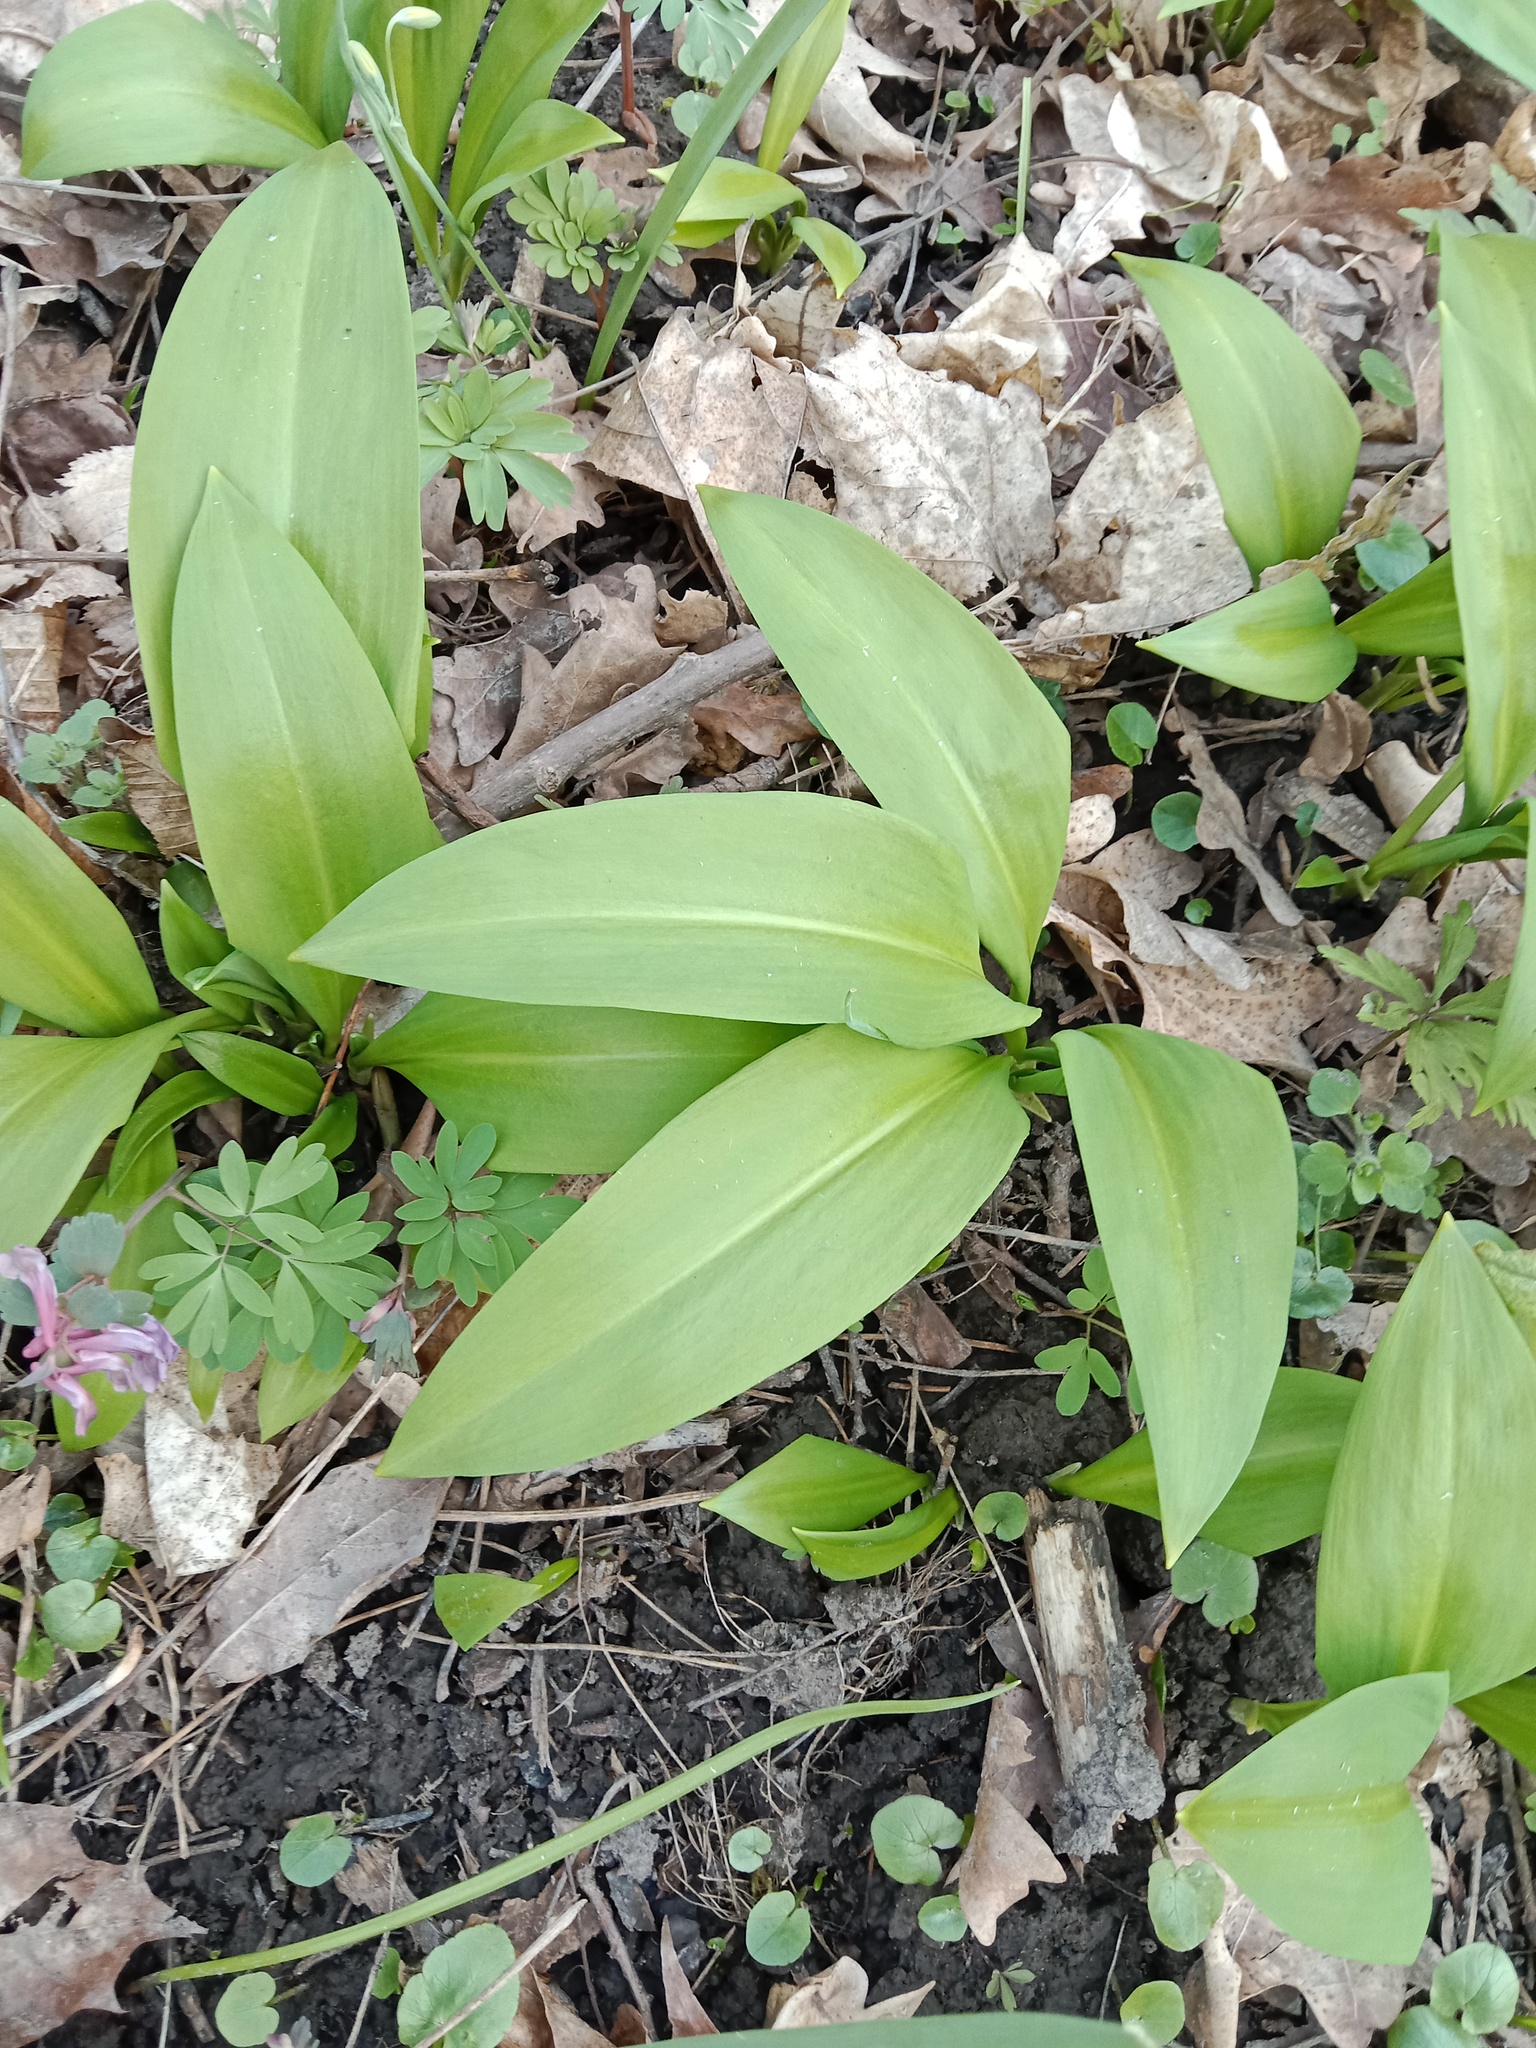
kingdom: Plantae
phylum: Tracheophyta
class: Liliopsida
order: Asparagales
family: Amaryllidaceae
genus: Allium
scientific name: Allium ursinum
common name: Ramsons
